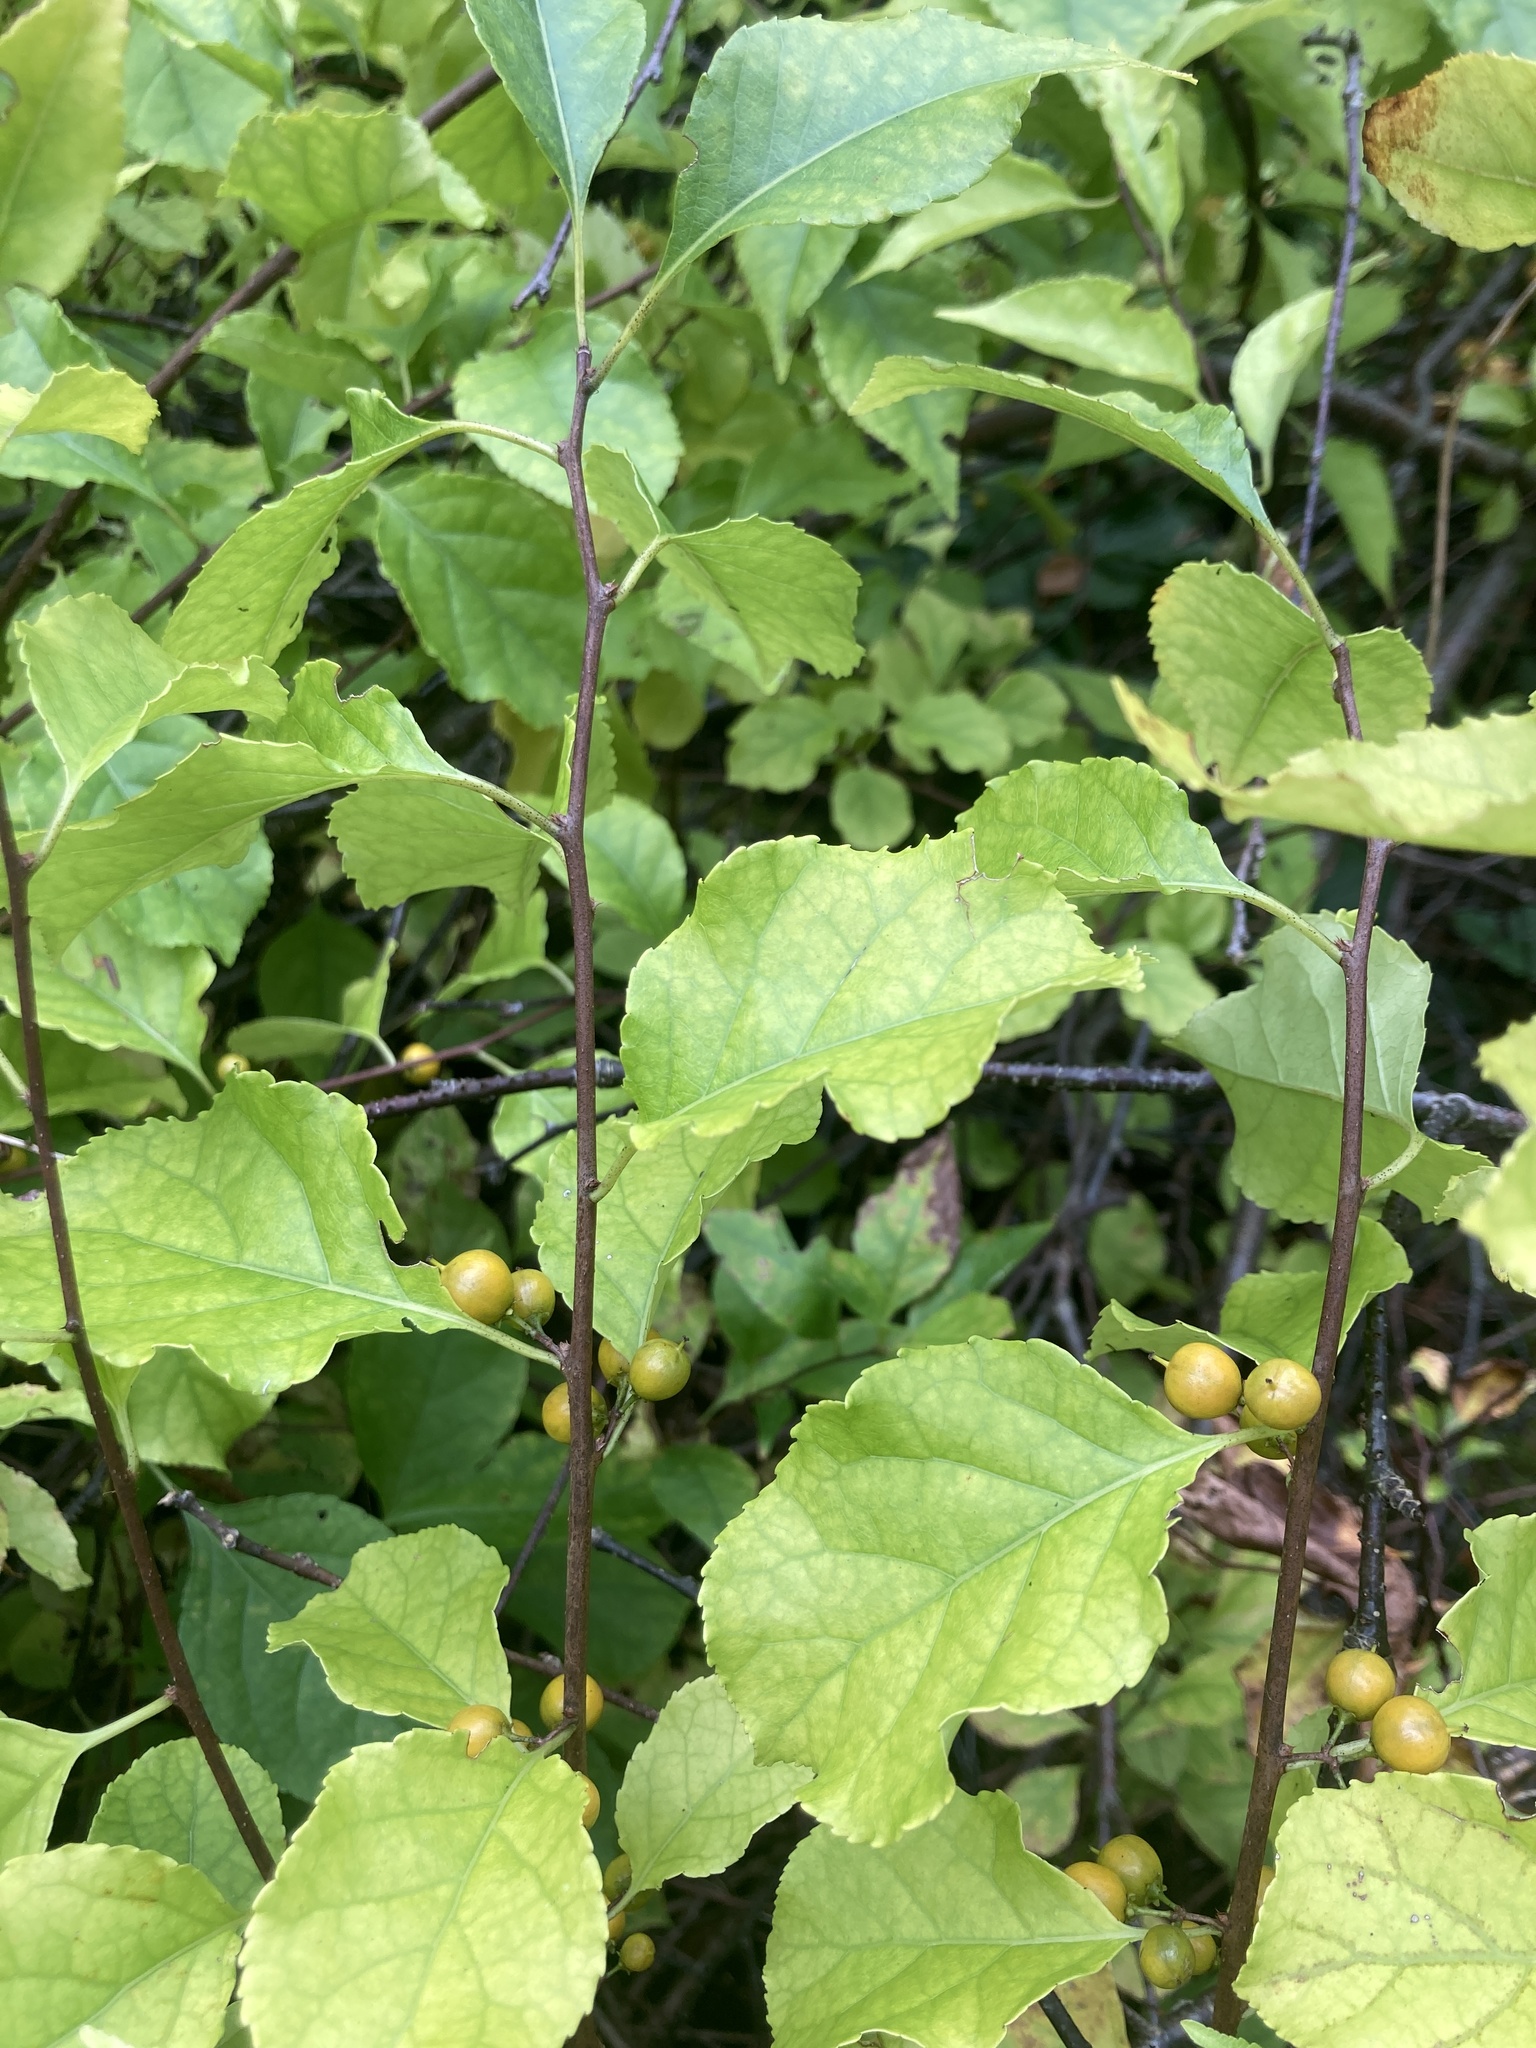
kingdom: Plantae
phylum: Tracheophyta
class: Magnoliopsida
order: Celastrales
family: Celastraceae
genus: Celastrus
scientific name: Celastrus orbiculatus
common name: Oriental bittersweet
